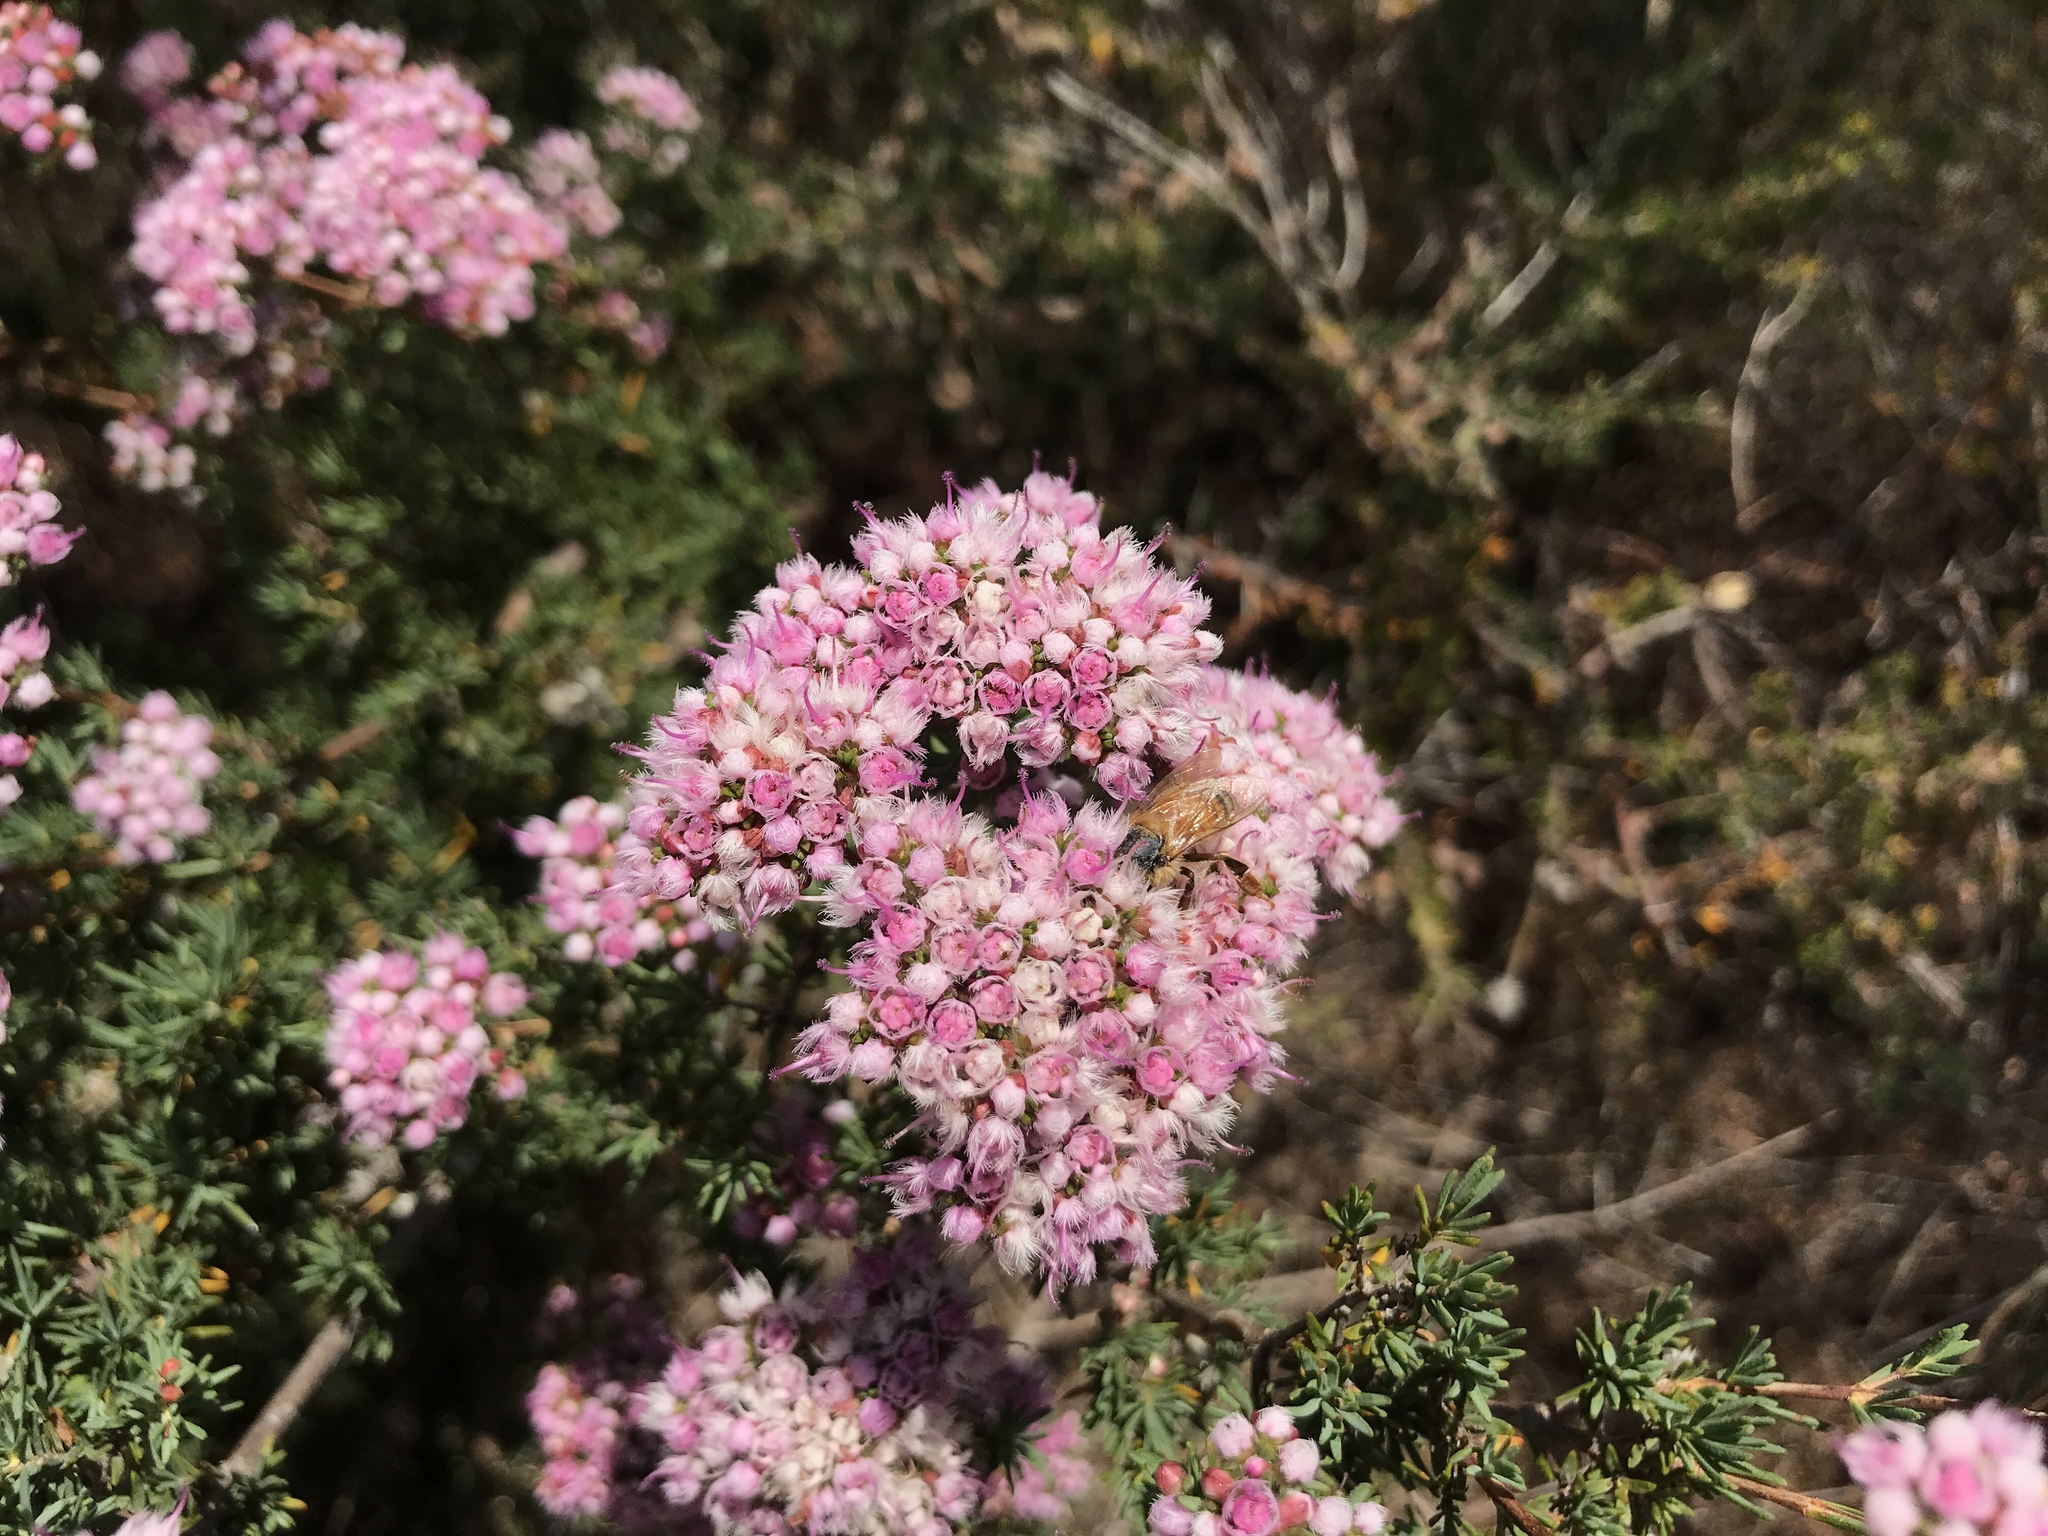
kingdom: Plantae
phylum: Tracheophyta
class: Magnoliopsida
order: Myrtales
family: Myrtaceae
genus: Verticordia
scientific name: Verticordia densiflora
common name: Compact feather-flower
